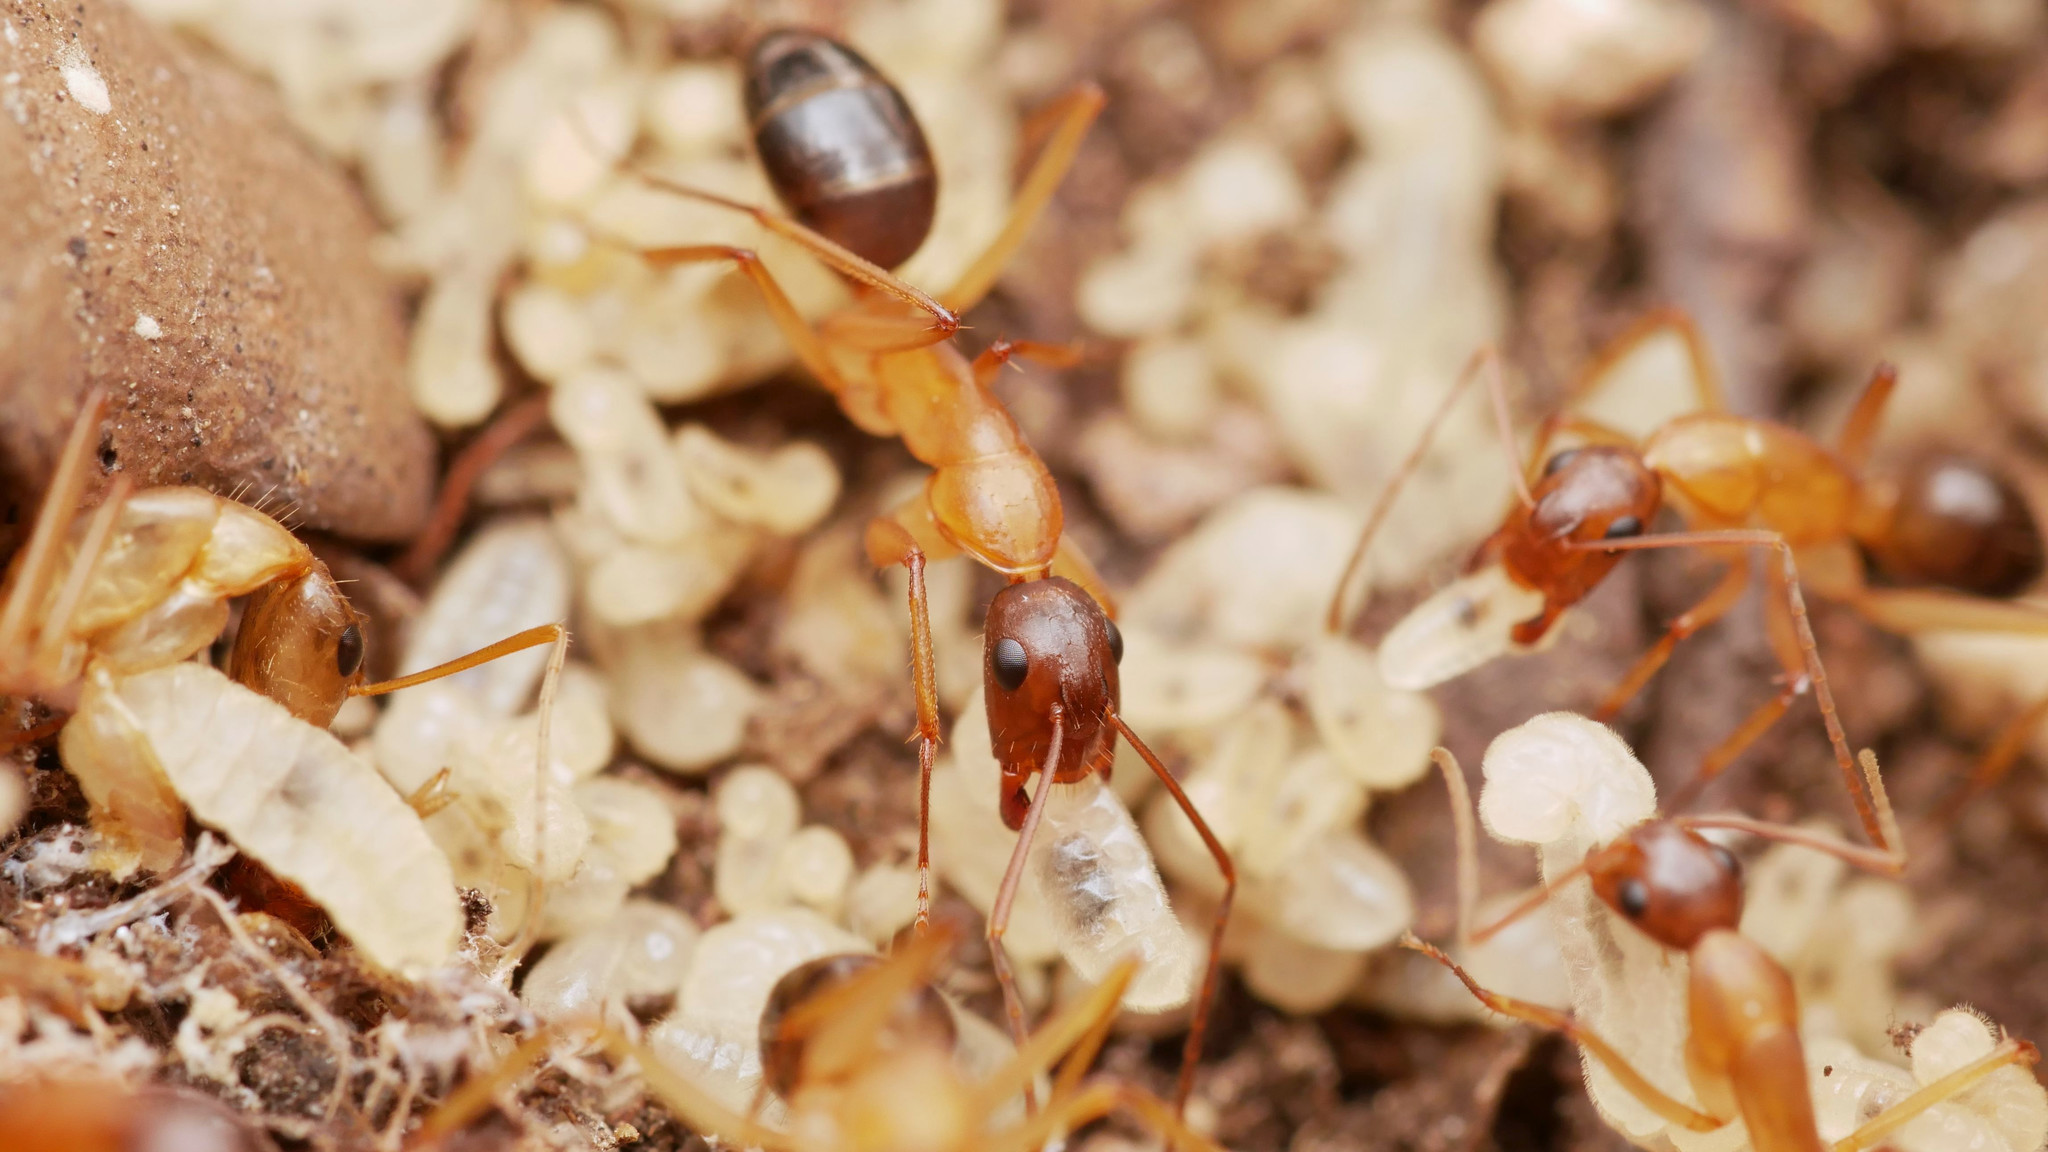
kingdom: Animalia
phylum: Arthropoda
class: Insecta
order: Hymenoptera
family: Formicidae
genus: Camponotus
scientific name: Camponotus pilicornis
